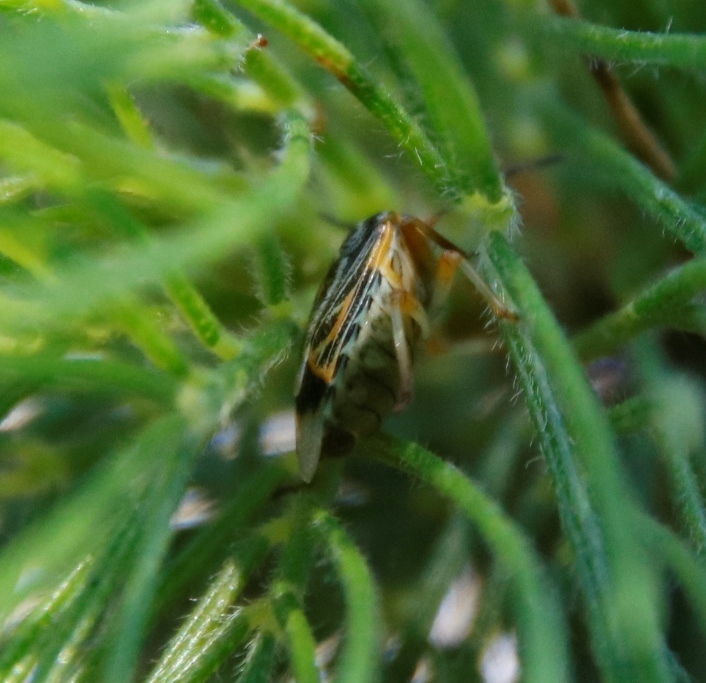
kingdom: Animalia
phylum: Arthropoda
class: Insecta
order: Hemiptera
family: Pentatomidae
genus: Antestiopsis
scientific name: Antestiopsis thunbergii
